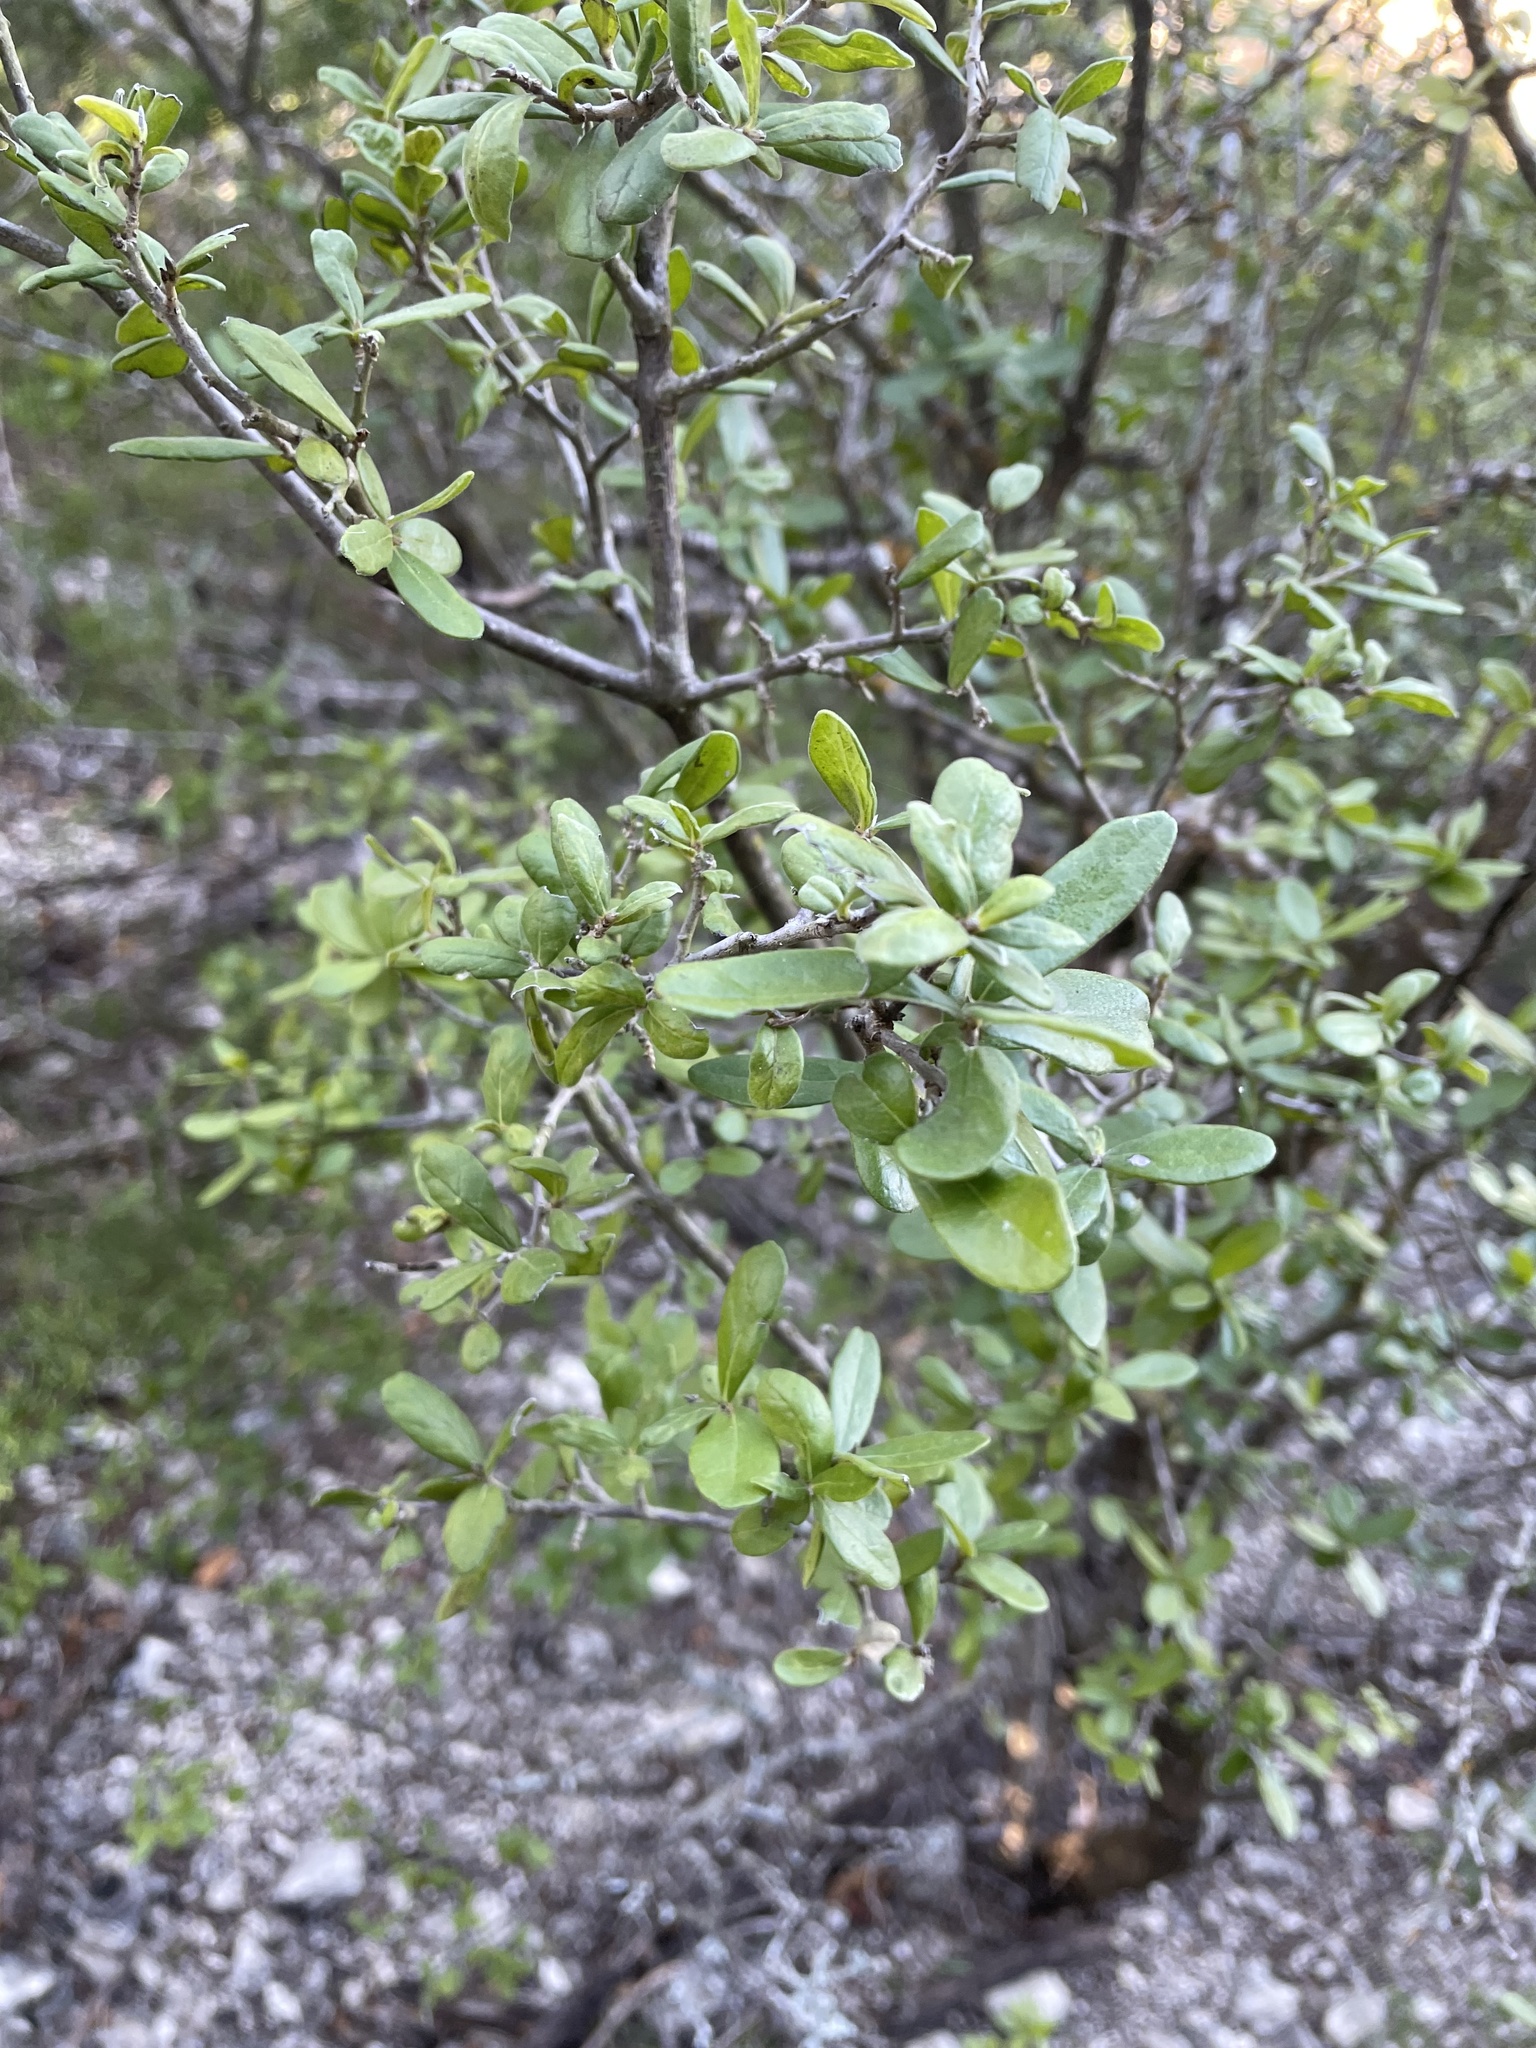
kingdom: Plantae
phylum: Tracheophyta
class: Magnoliopsida
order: Ericales
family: Ebenaceae
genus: Diospyros
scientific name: Diospyros texana
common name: Texas persimmon
